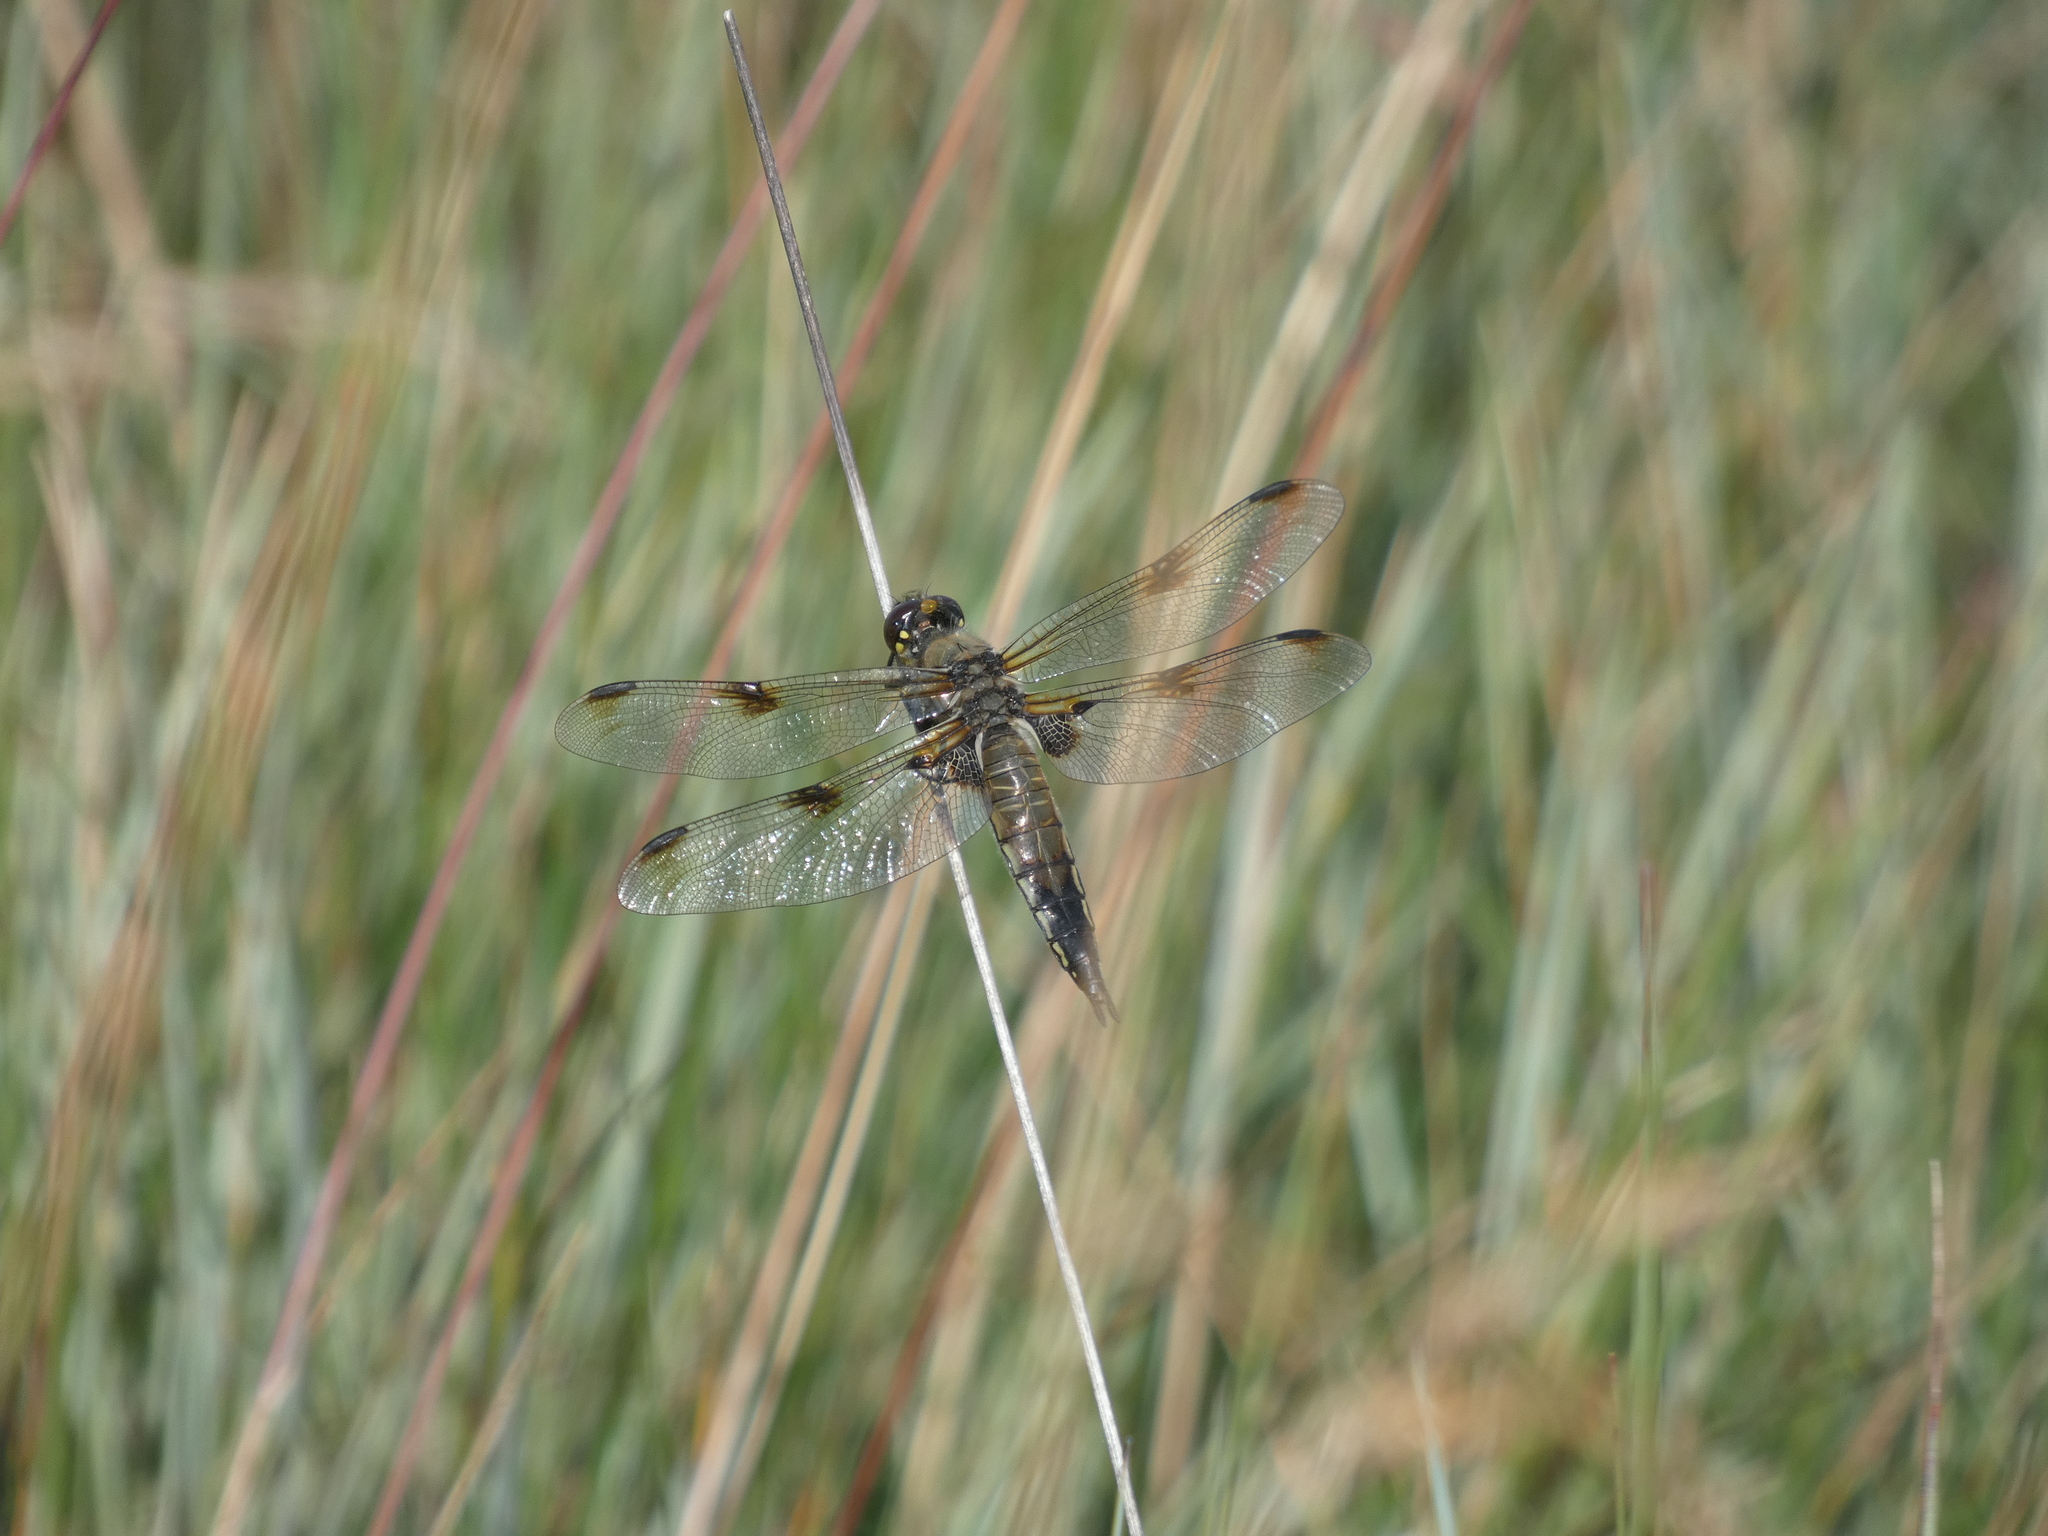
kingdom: Animalia
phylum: Arthropoda
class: Insecta
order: Odonata
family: Libellulidae
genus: Libellula
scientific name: Libellula quadrimaculata
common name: Four-spotted chaser
